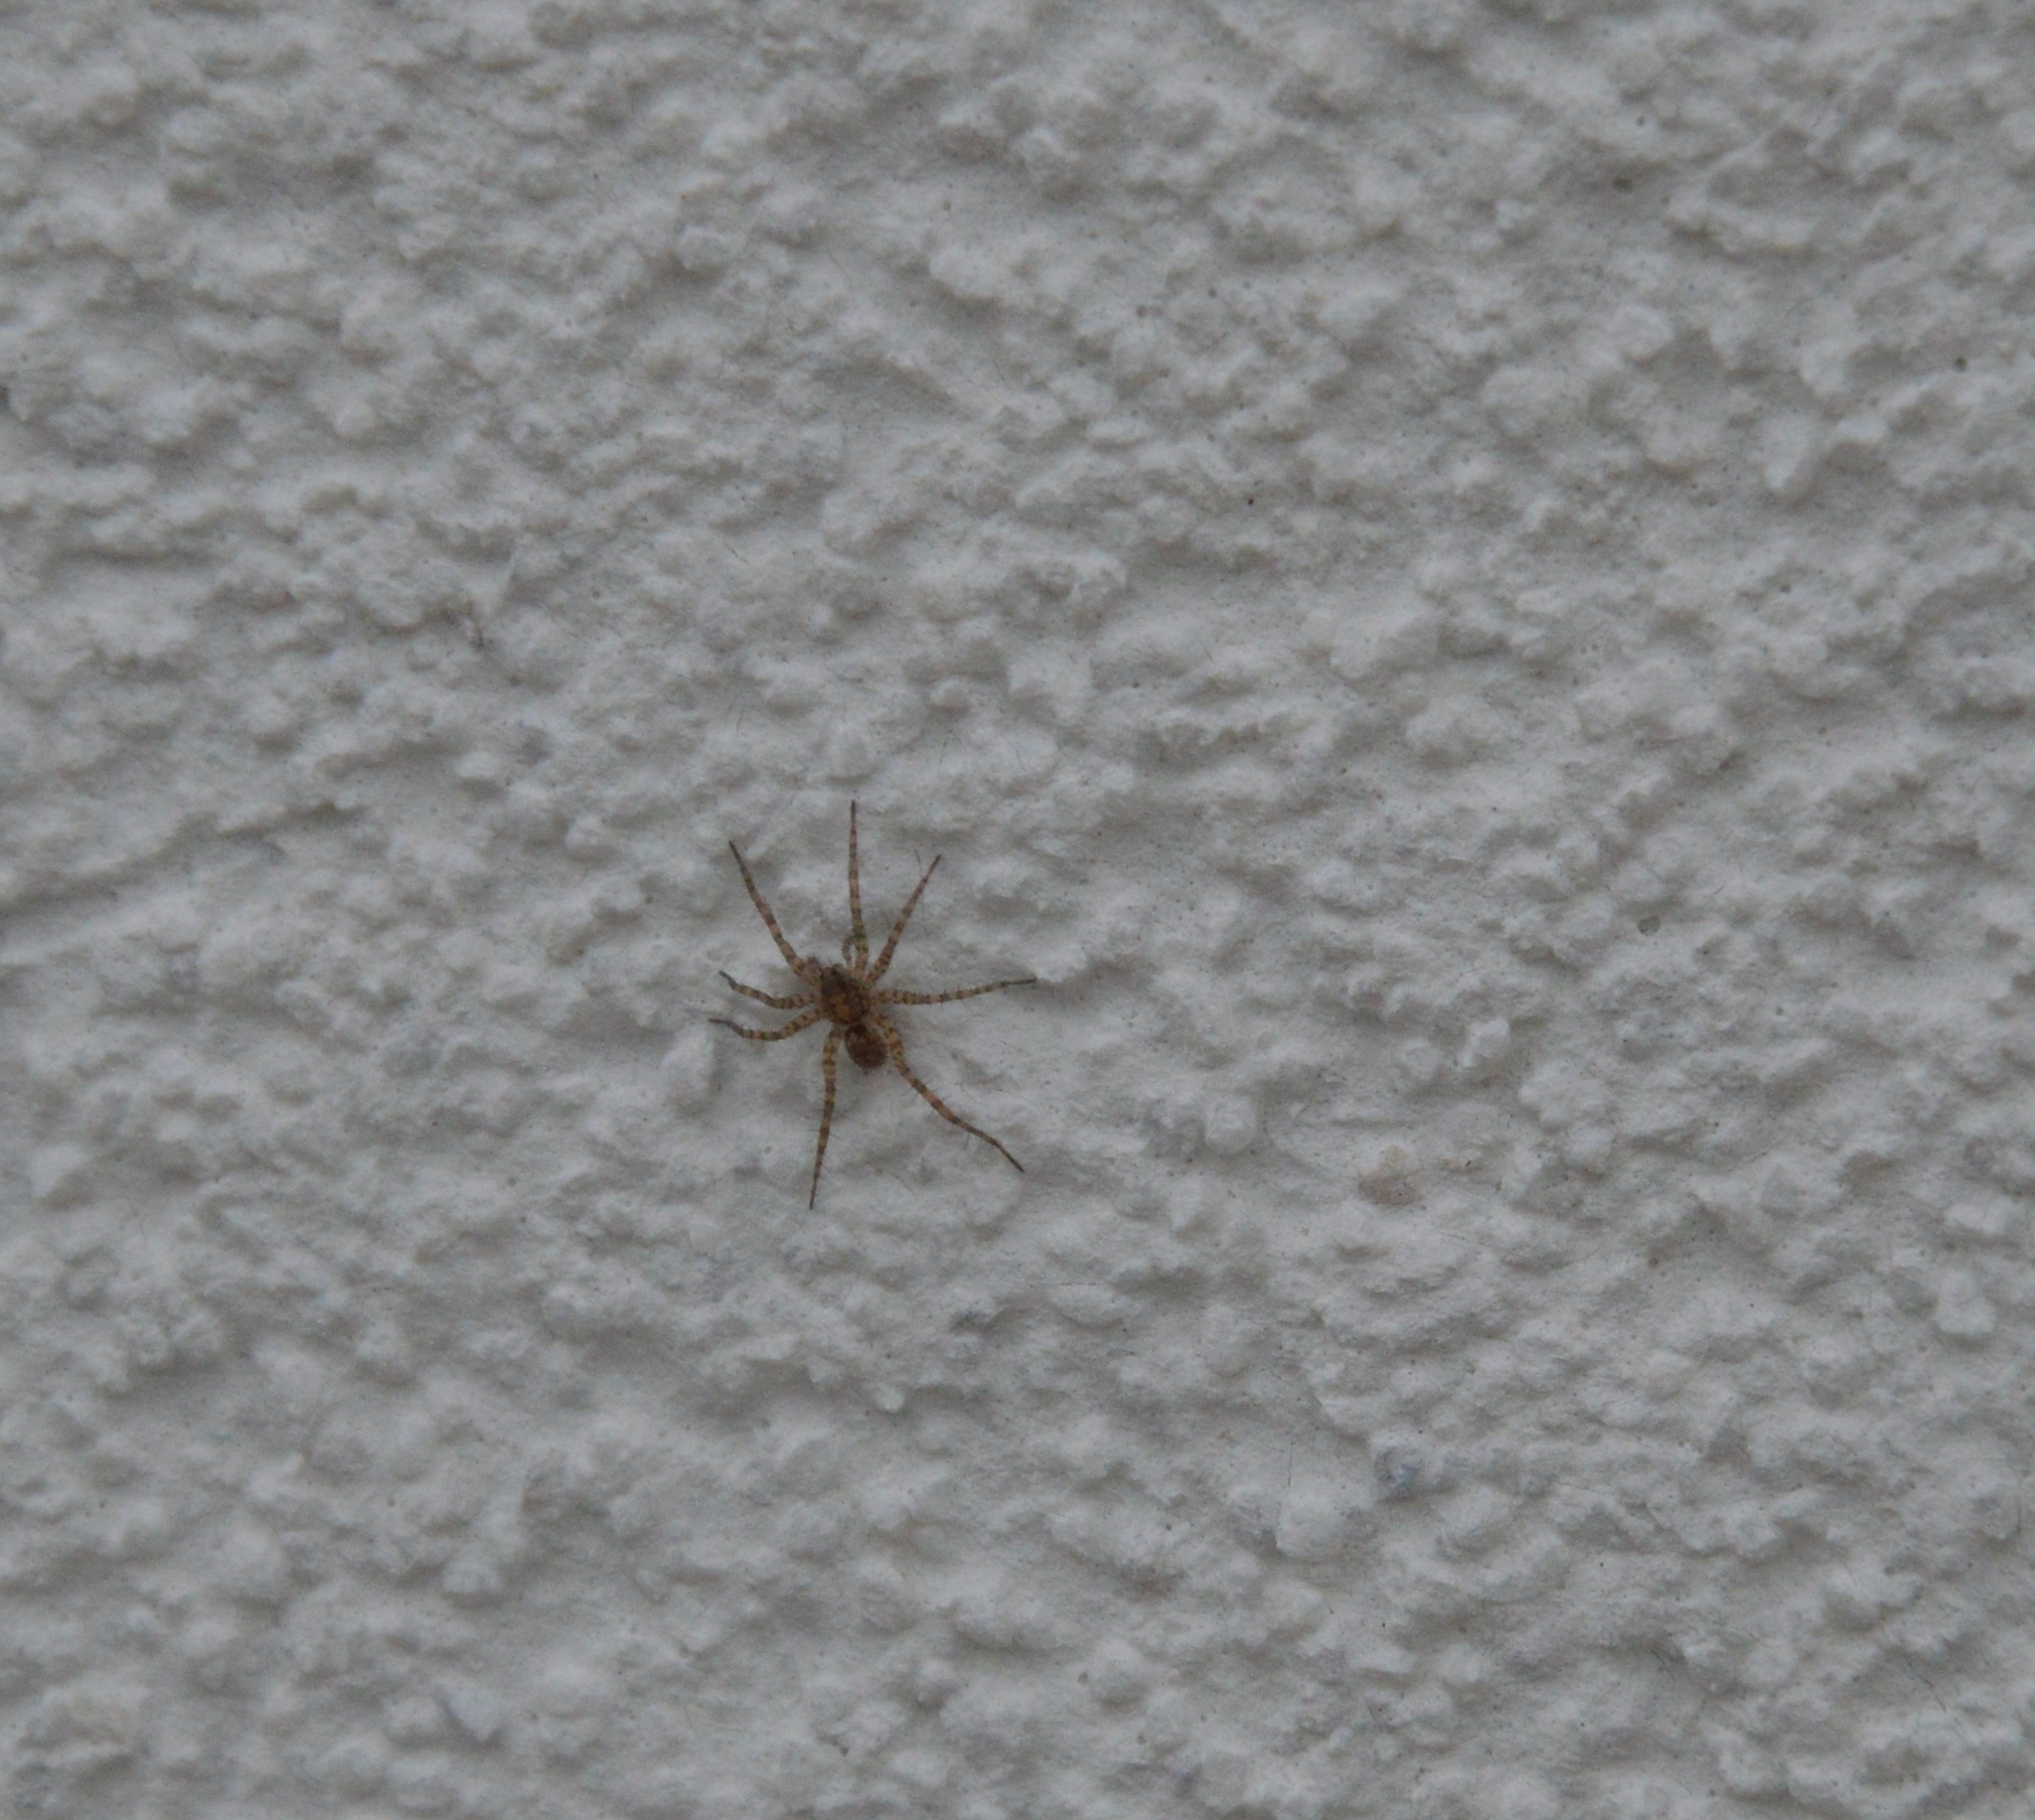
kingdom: Animalia
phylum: Arthropoda
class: Arachnida
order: Araneae
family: Lycosidae
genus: Pardosa
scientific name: Pardosa
